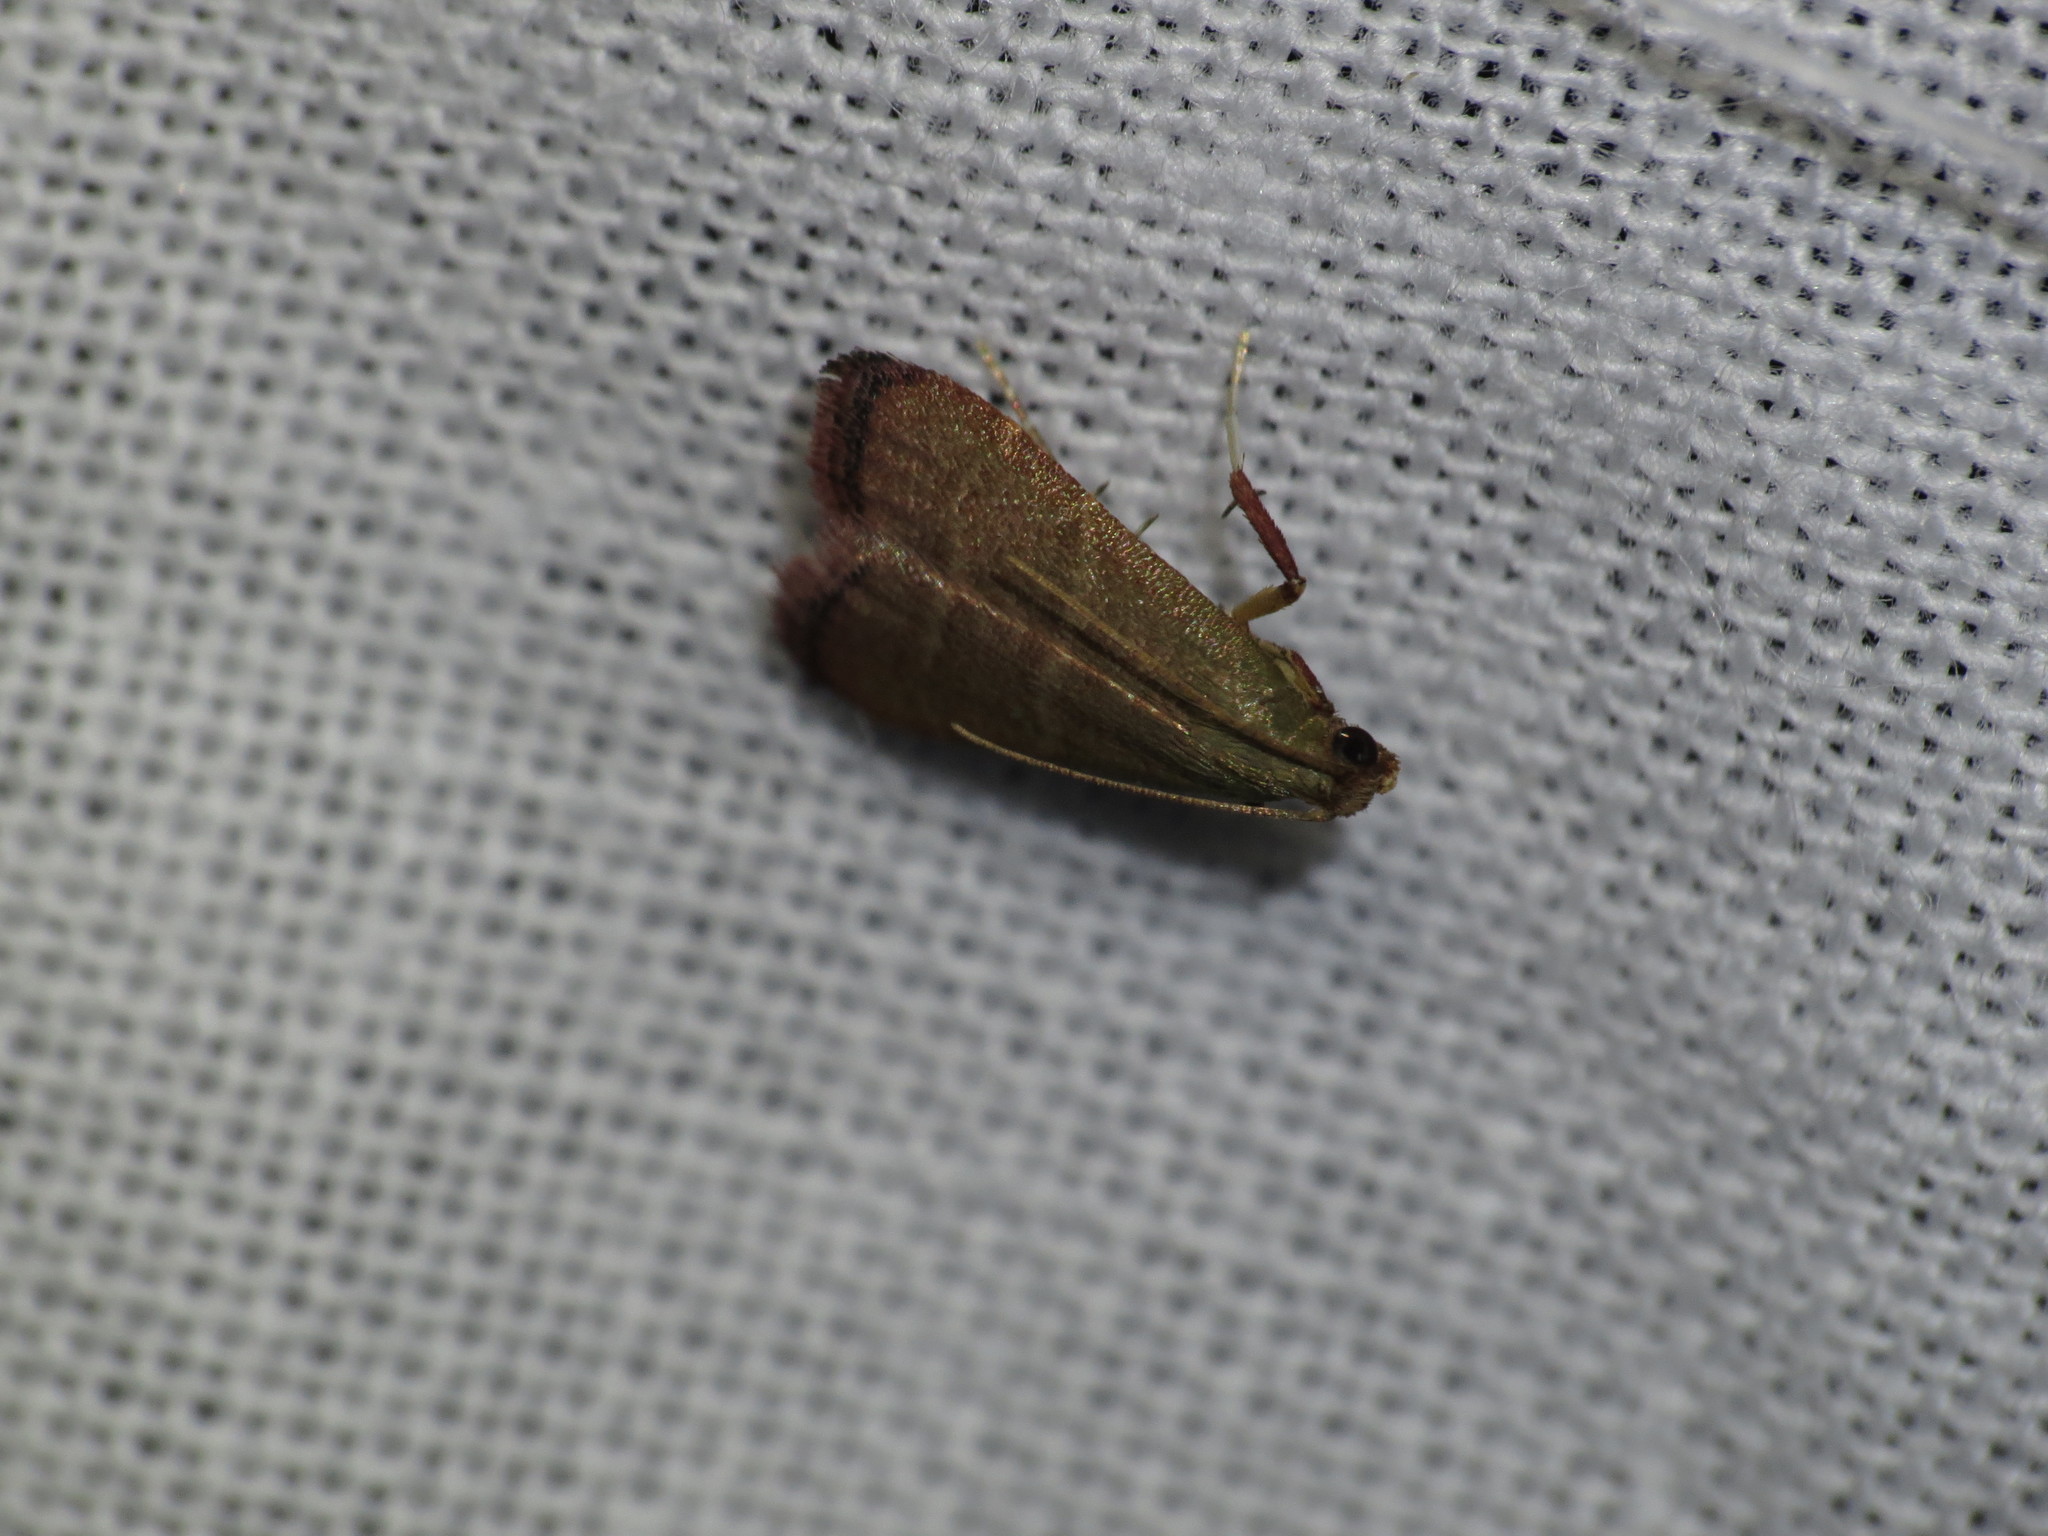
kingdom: Animalia
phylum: Arthropoda
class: Insecta
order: Lepidoptera
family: Pyralidae
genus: Arta
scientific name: Arta olivalis
